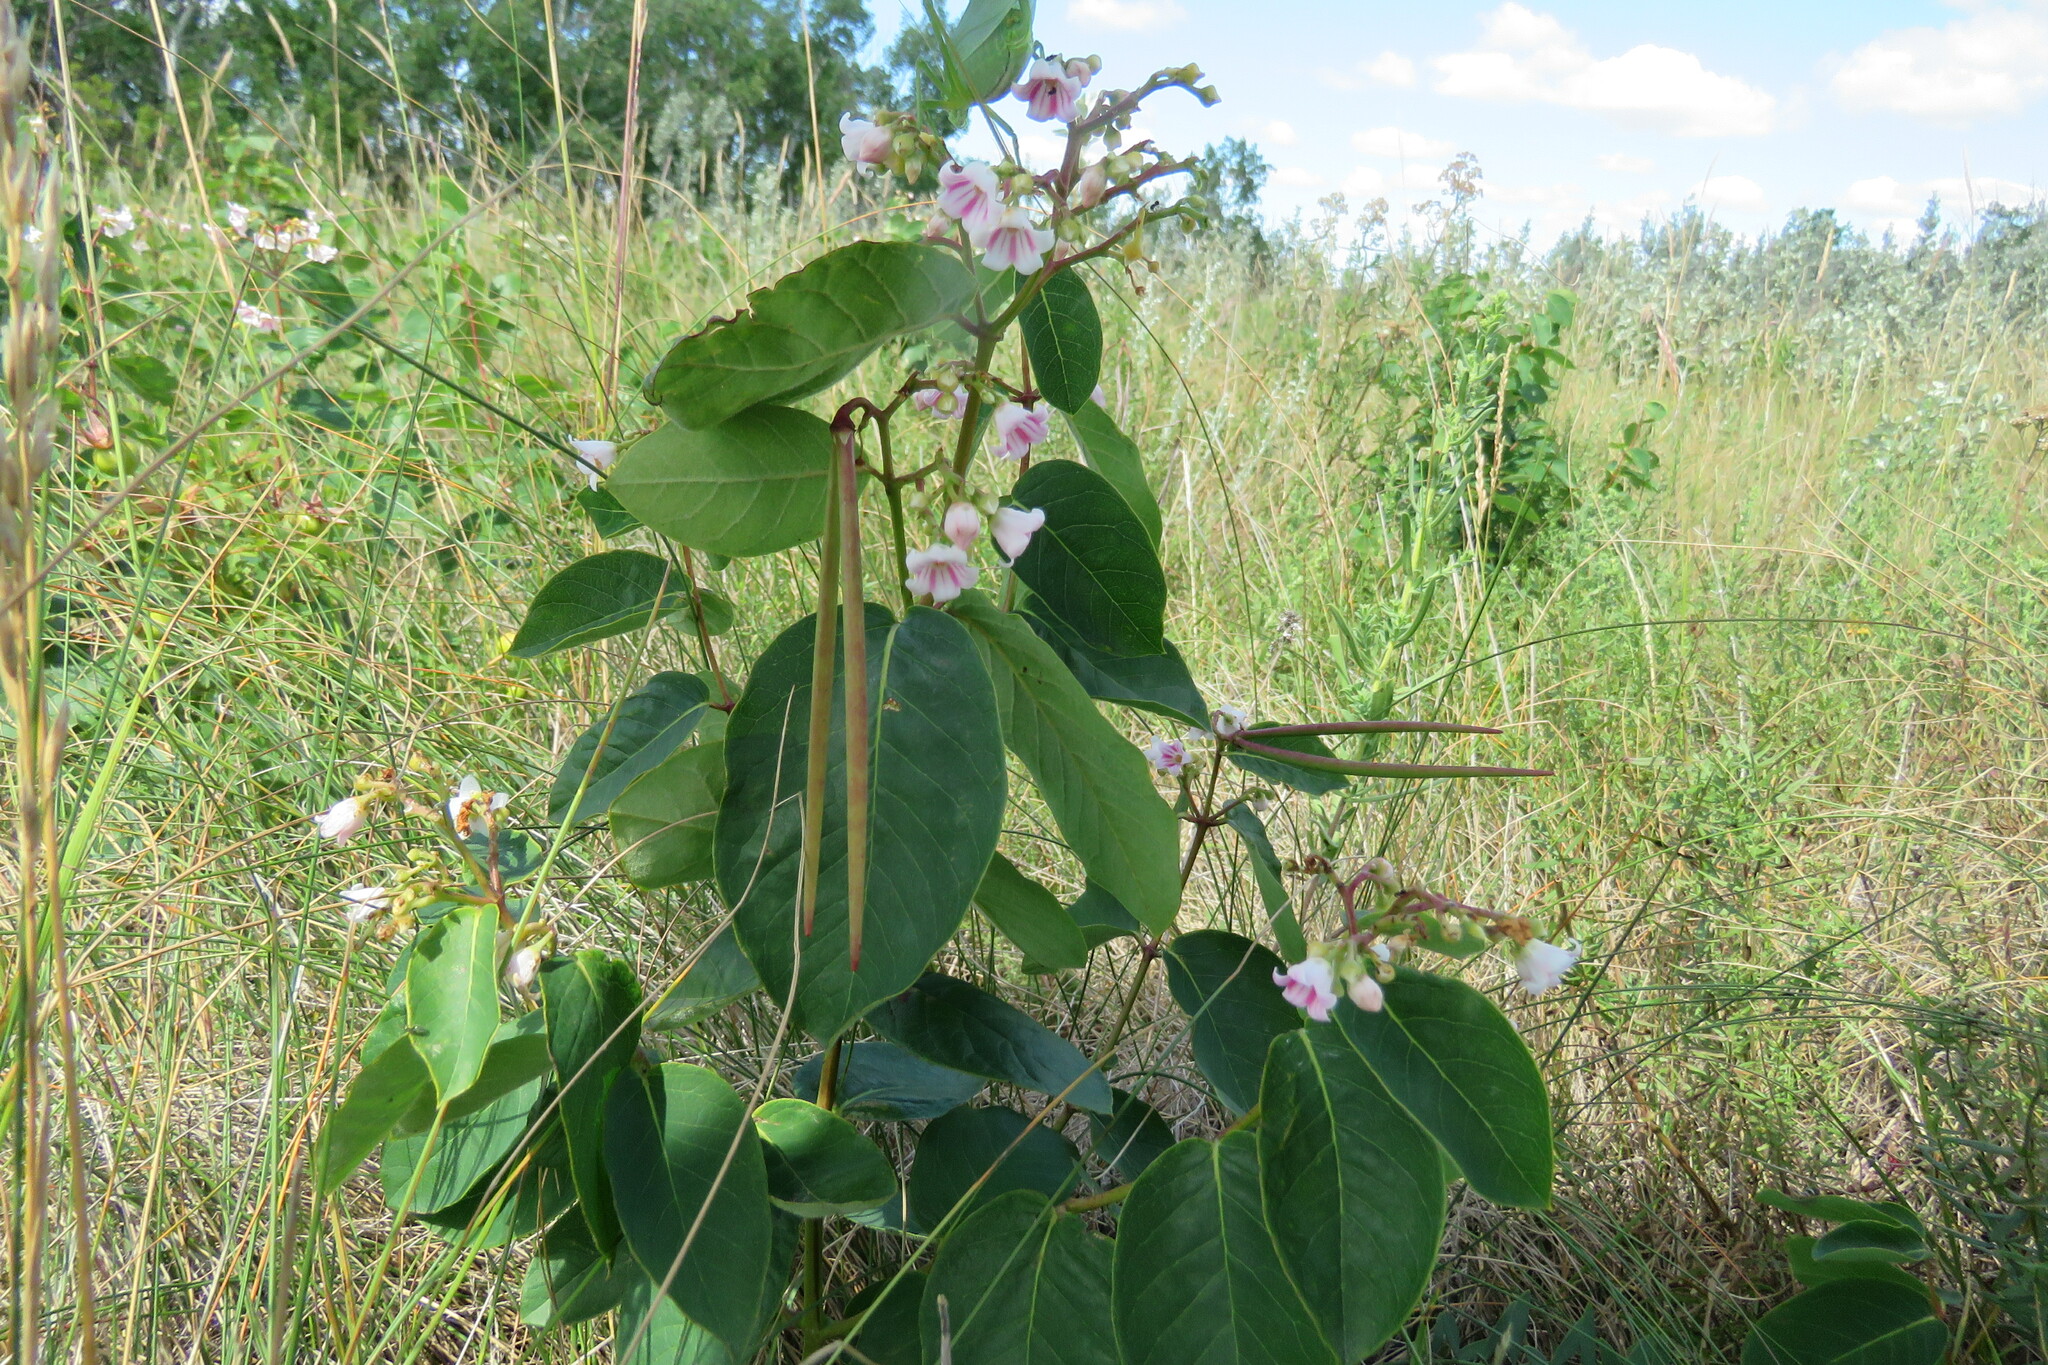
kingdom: Plantae
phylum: Tracheophyta
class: Magnoliopsida
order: Gentianales
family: Apocynaceae
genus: Apocynum
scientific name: Apocynum androsaemifolium
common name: Spreading dogbane
